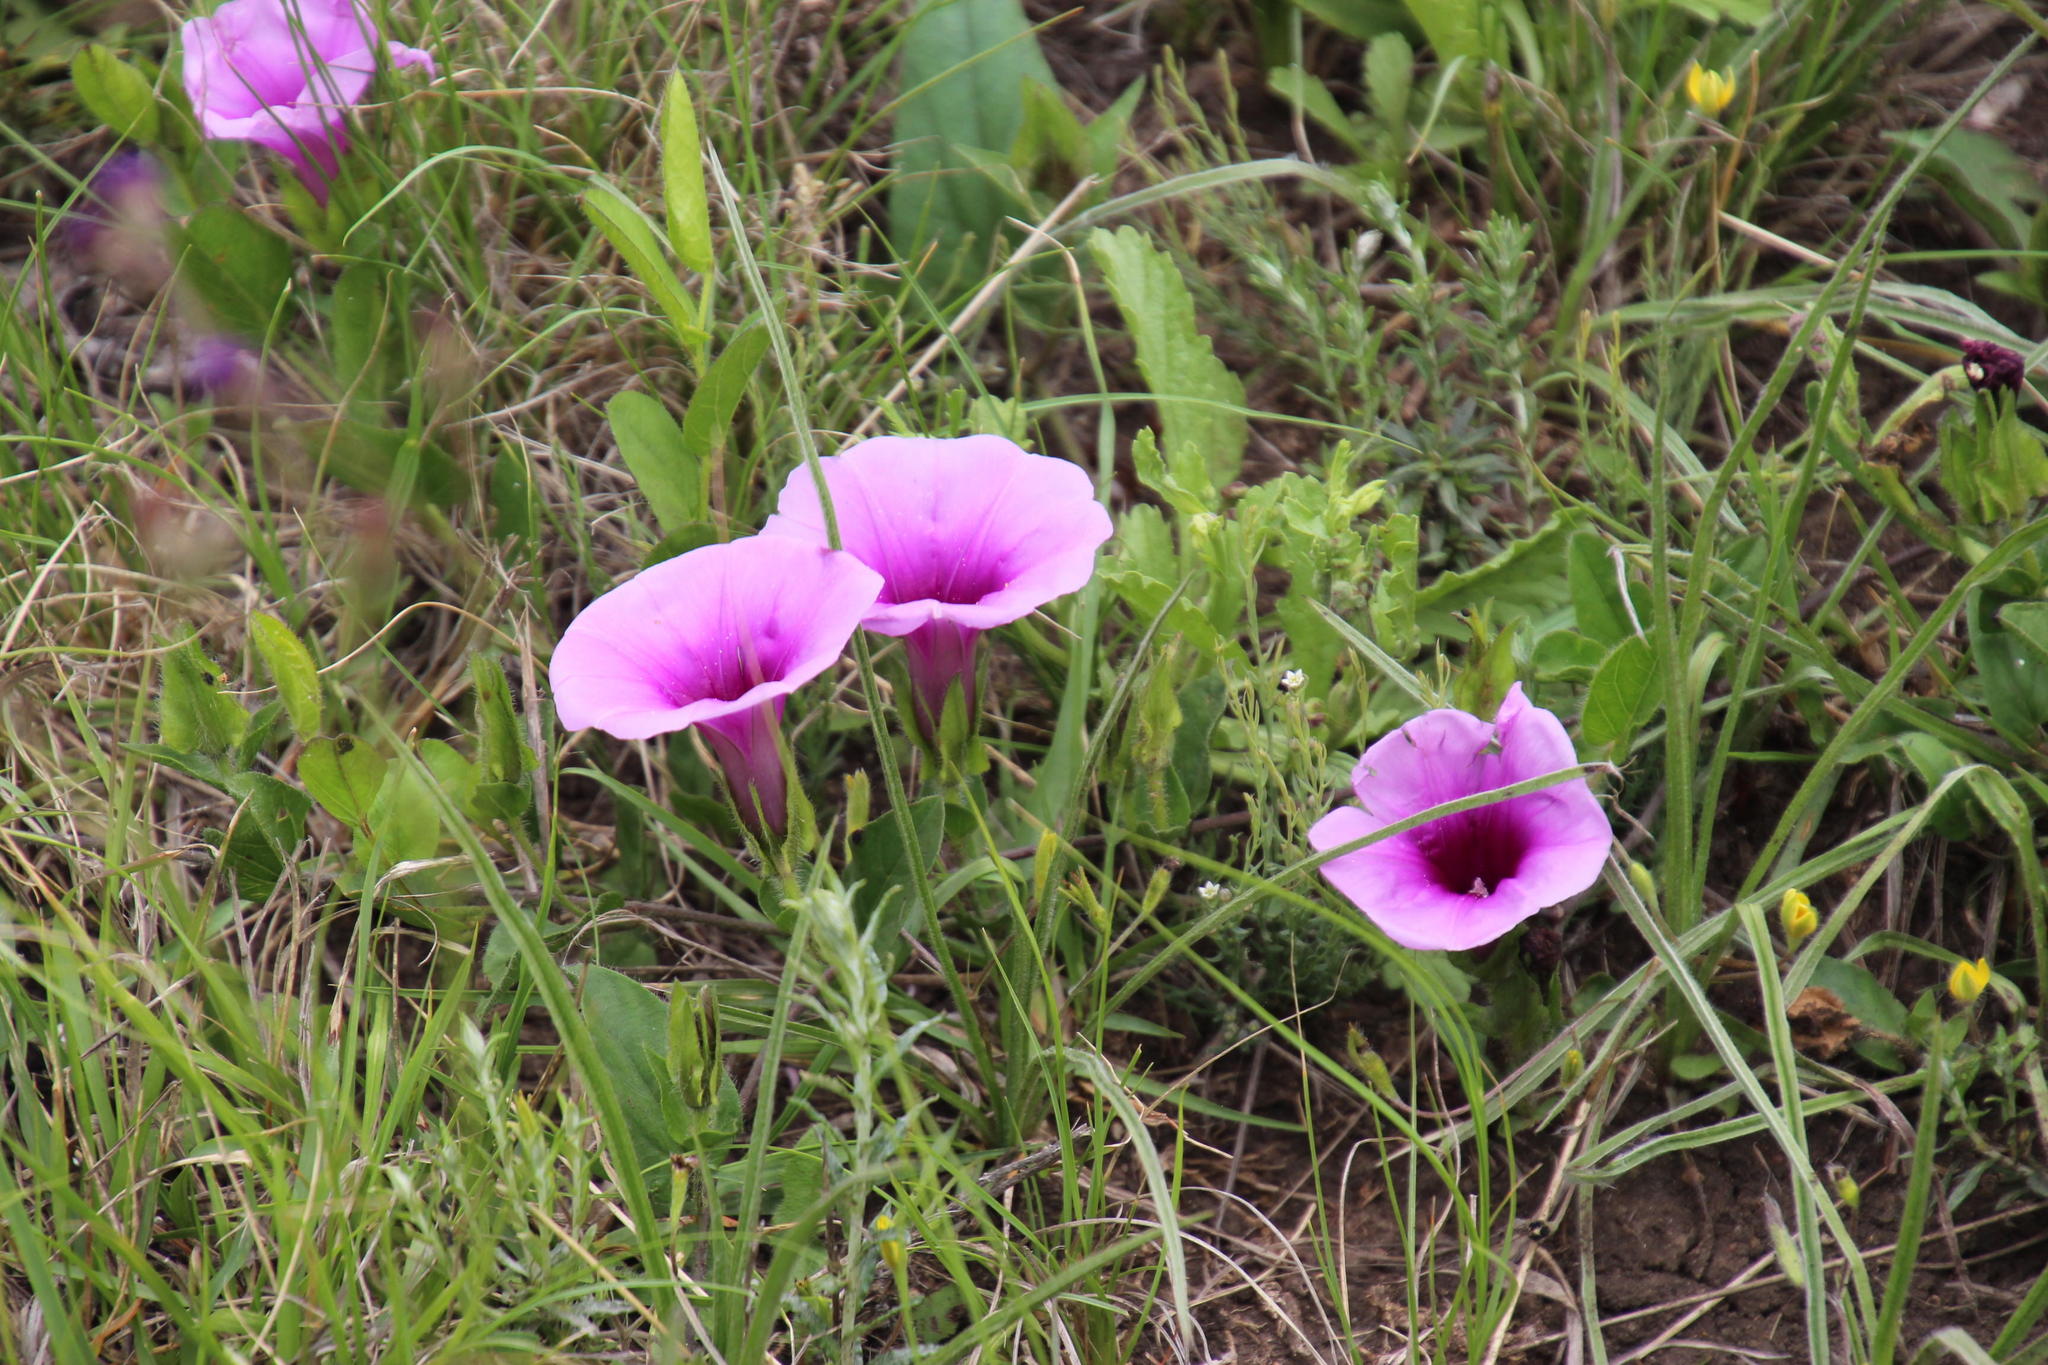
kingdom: Plantae
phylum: Tracheophyta
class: Magnoliopsida
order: Solanales
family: Convolvulaceae
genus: Ipomoea
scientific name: Ipomoea crassipes
